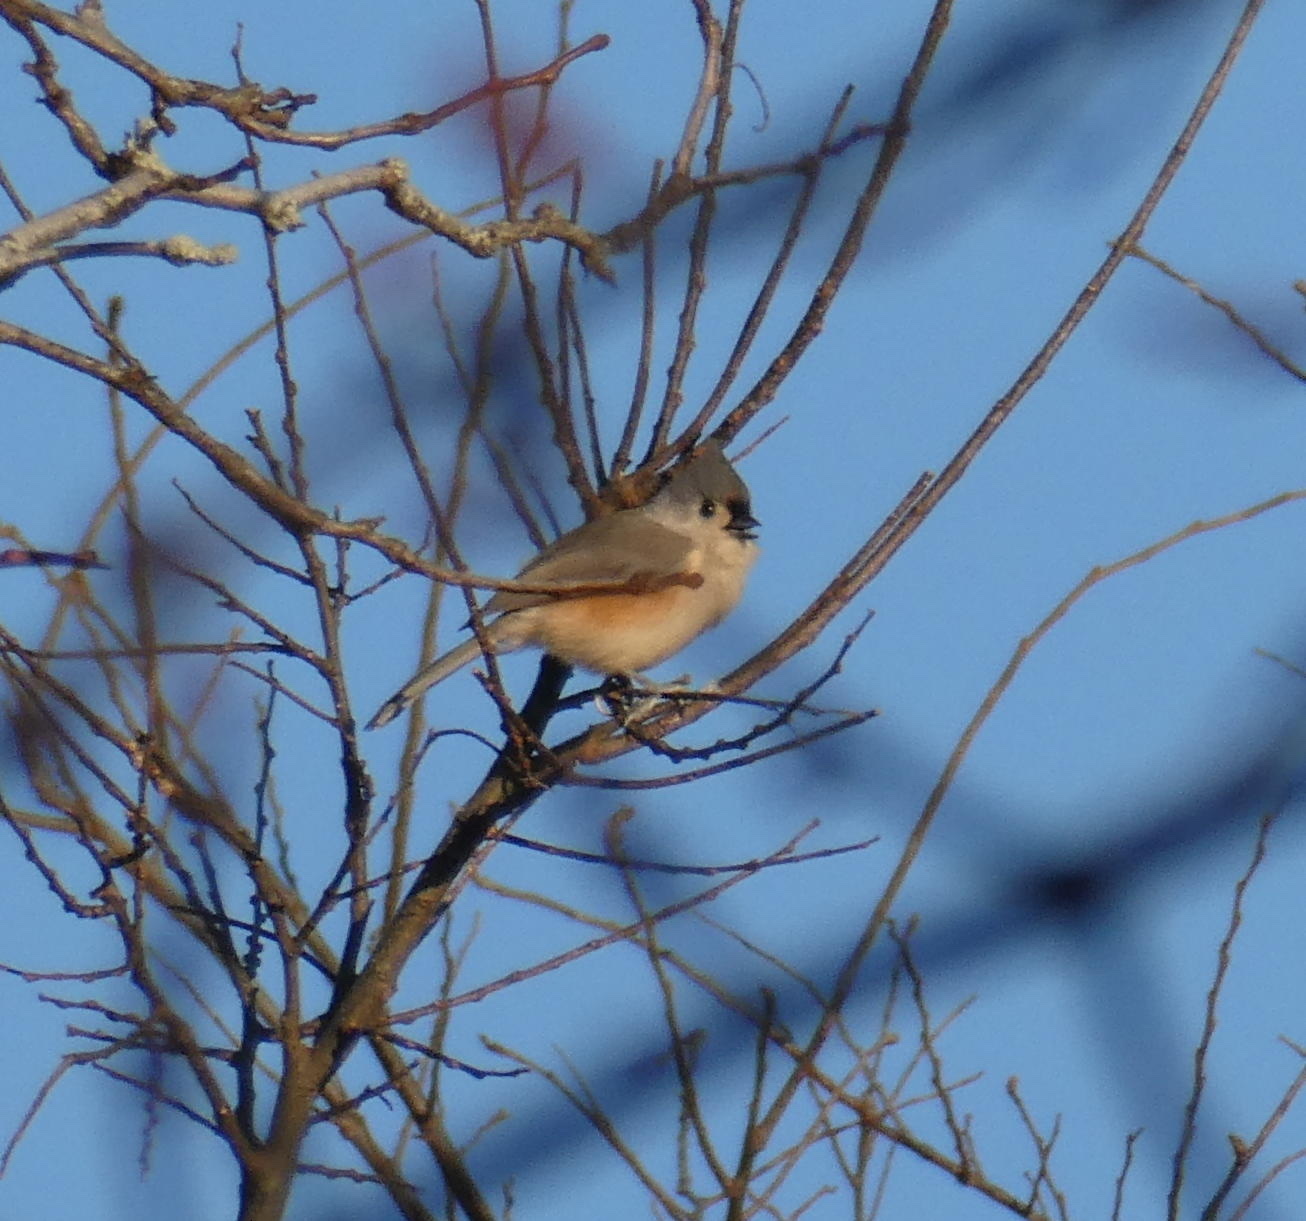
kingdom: Animalia
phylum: Chordata
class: Aves
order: Passeriformes
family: Paridae
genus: Baeolophus
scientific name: Baeolophus bicolor
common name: Tufted titmouse
